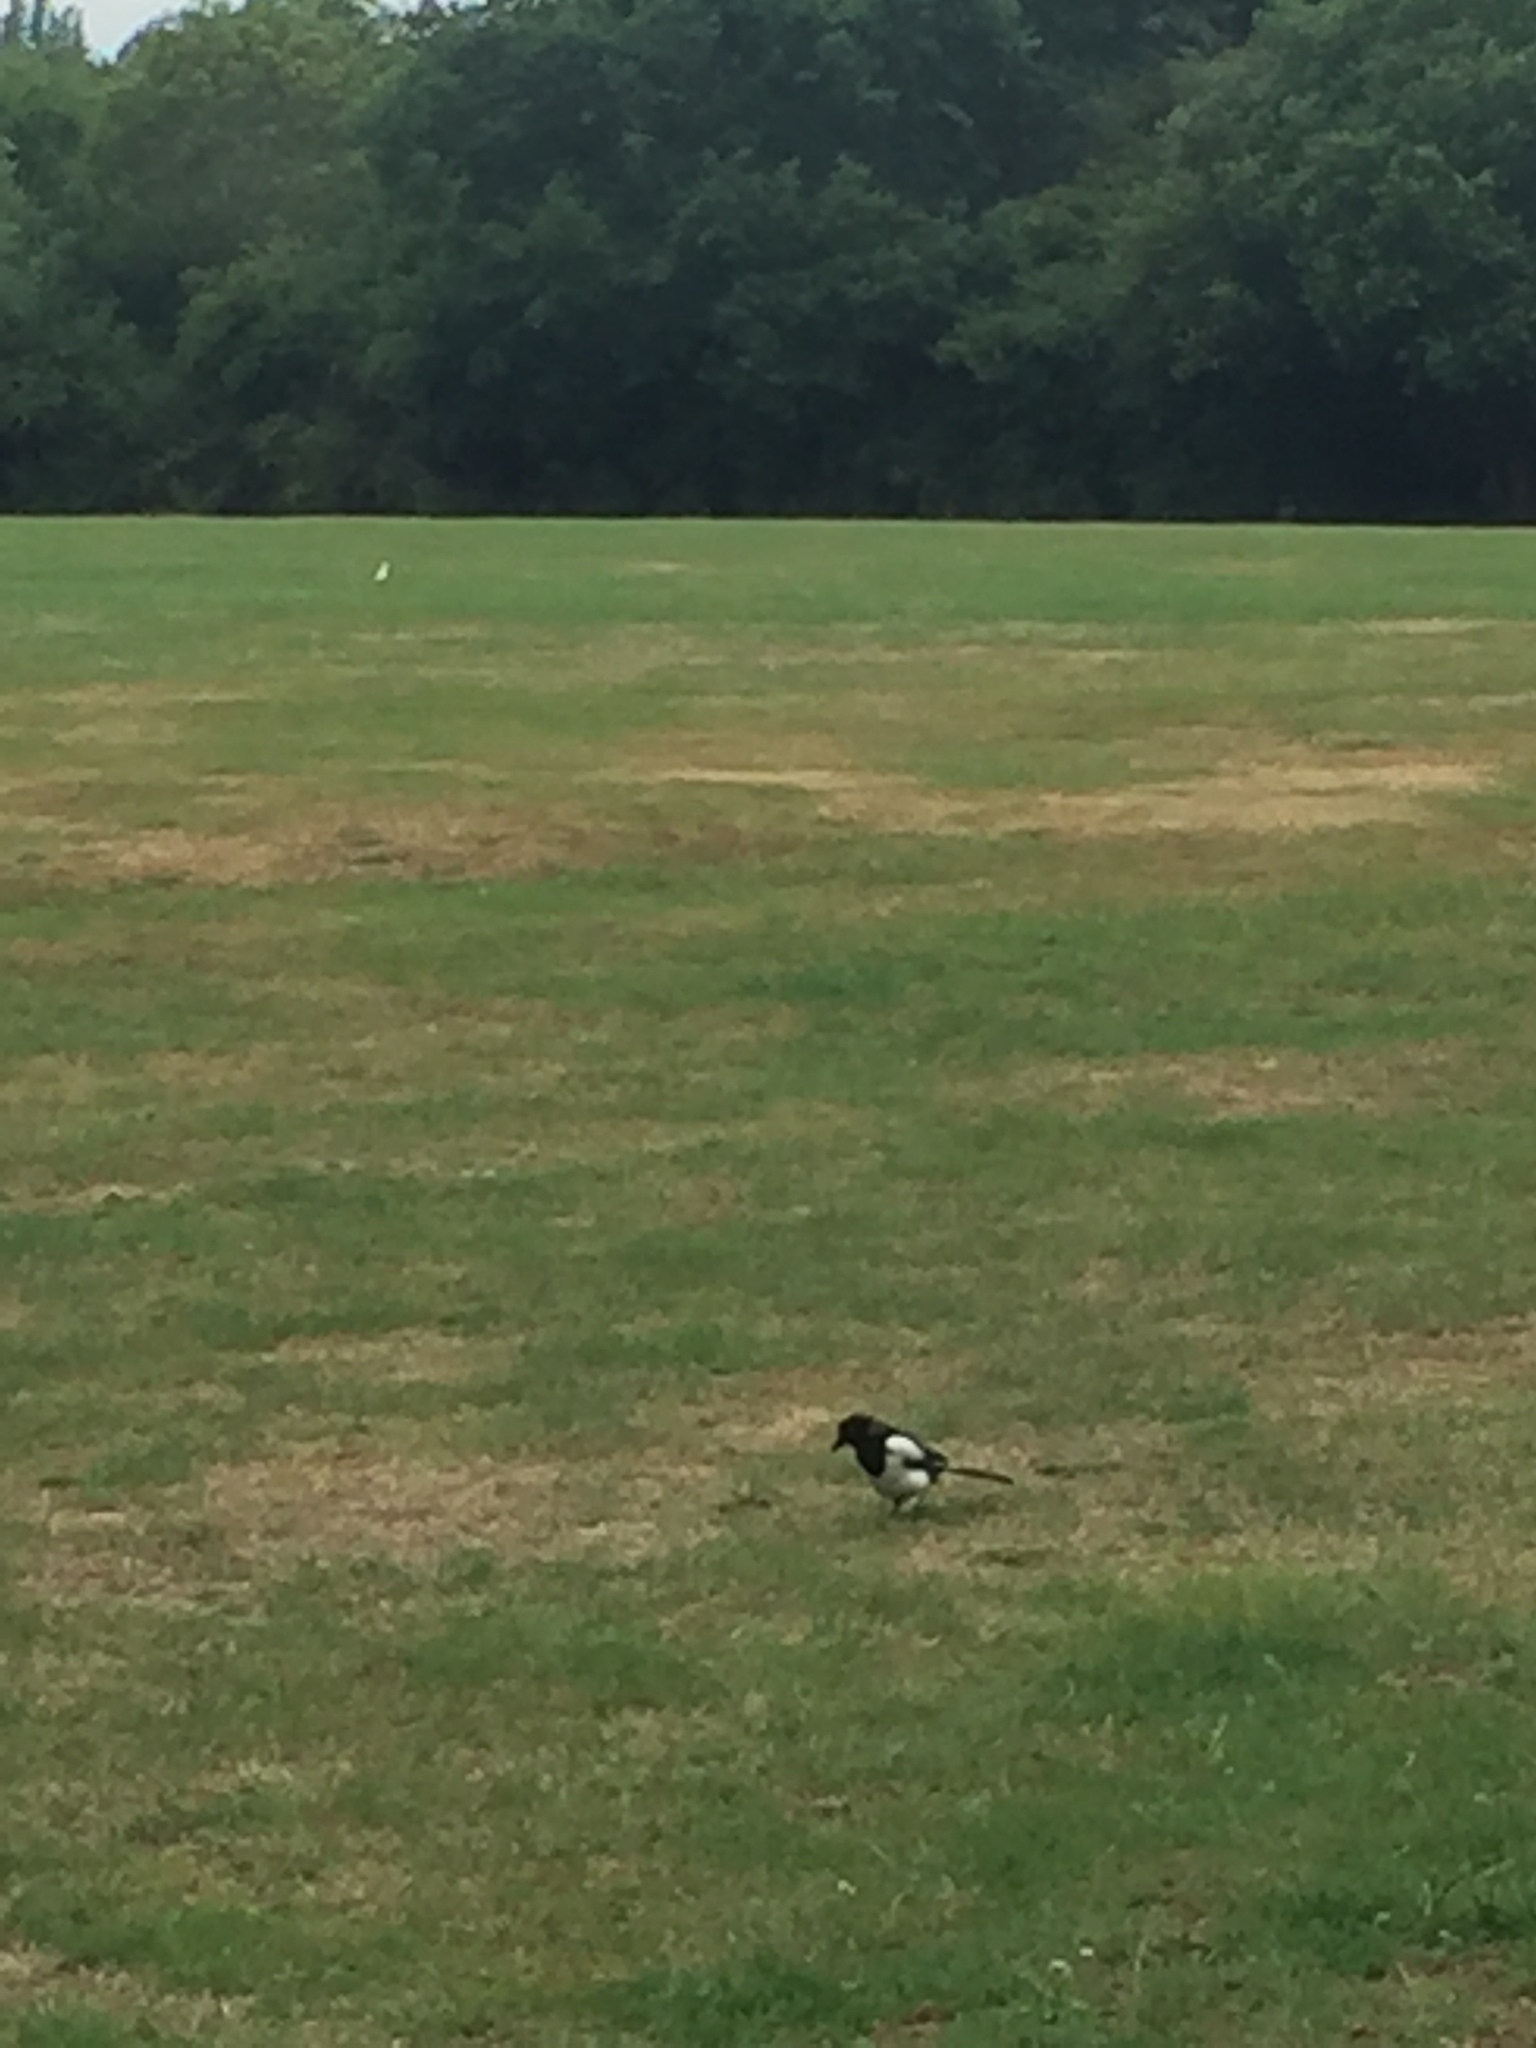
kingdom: Animalia
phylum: Chordata
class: Aves
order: Passeriformes
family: Corvidae
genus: Pica
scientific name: Pica pica
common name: Eurasian magpie
